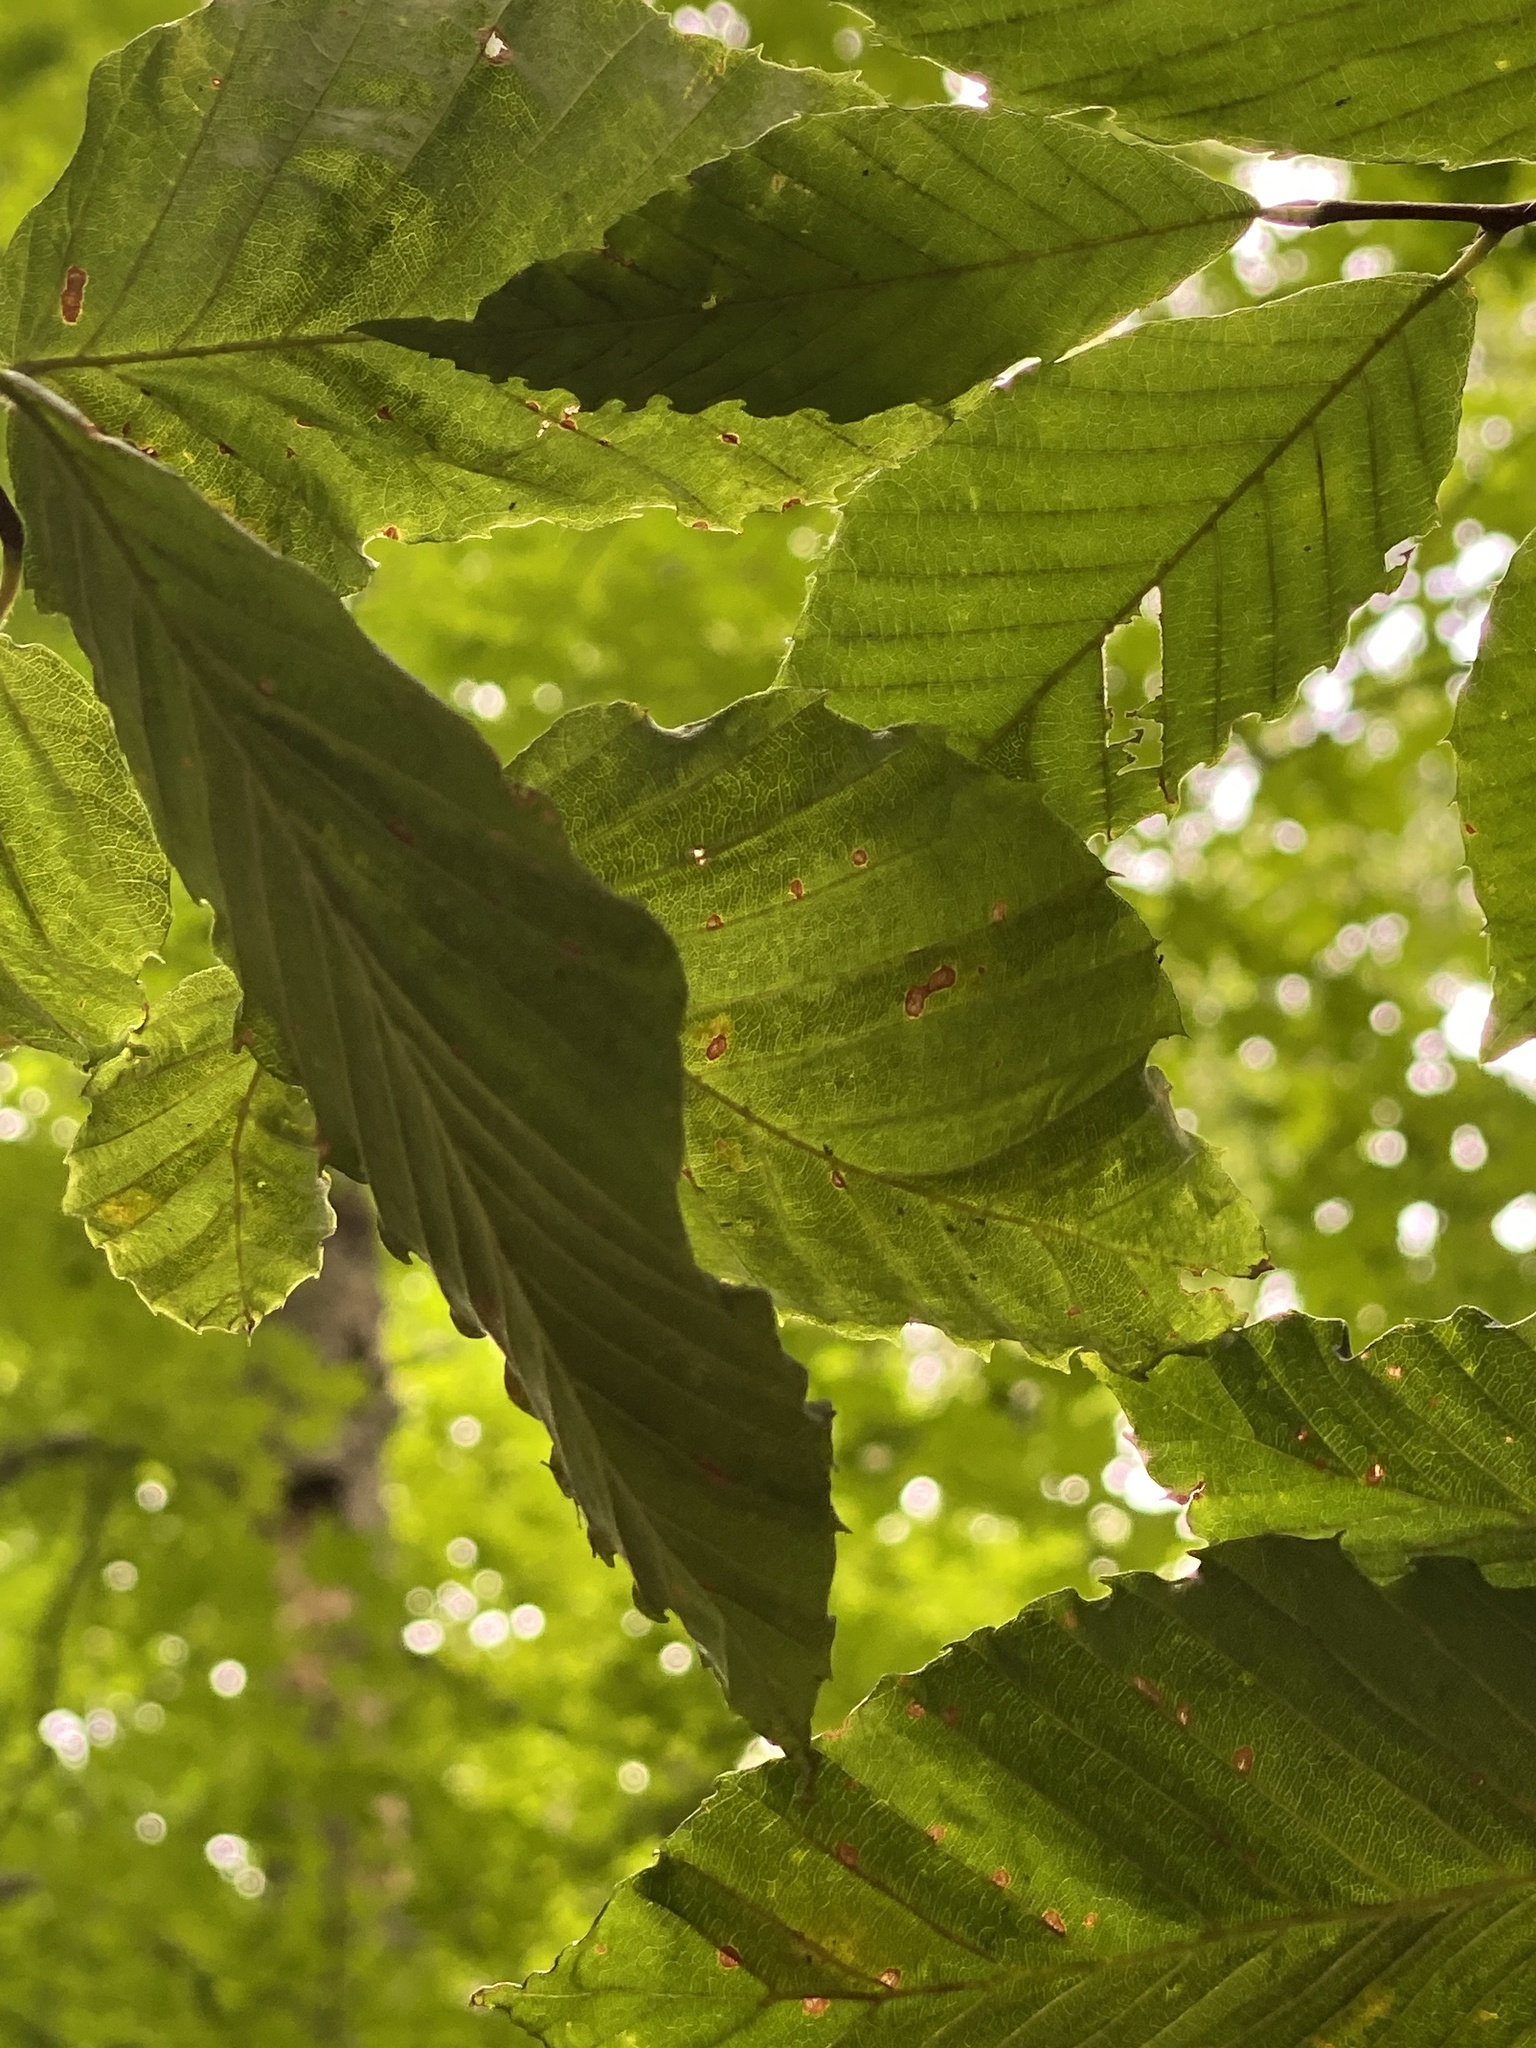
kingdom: Animalia
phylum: Nematoda
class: Chromadorea
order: Rhabditida
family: Anguinidae
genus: Litylenchus
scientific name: Litylenchus crenatae
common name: Beech leaf disease
